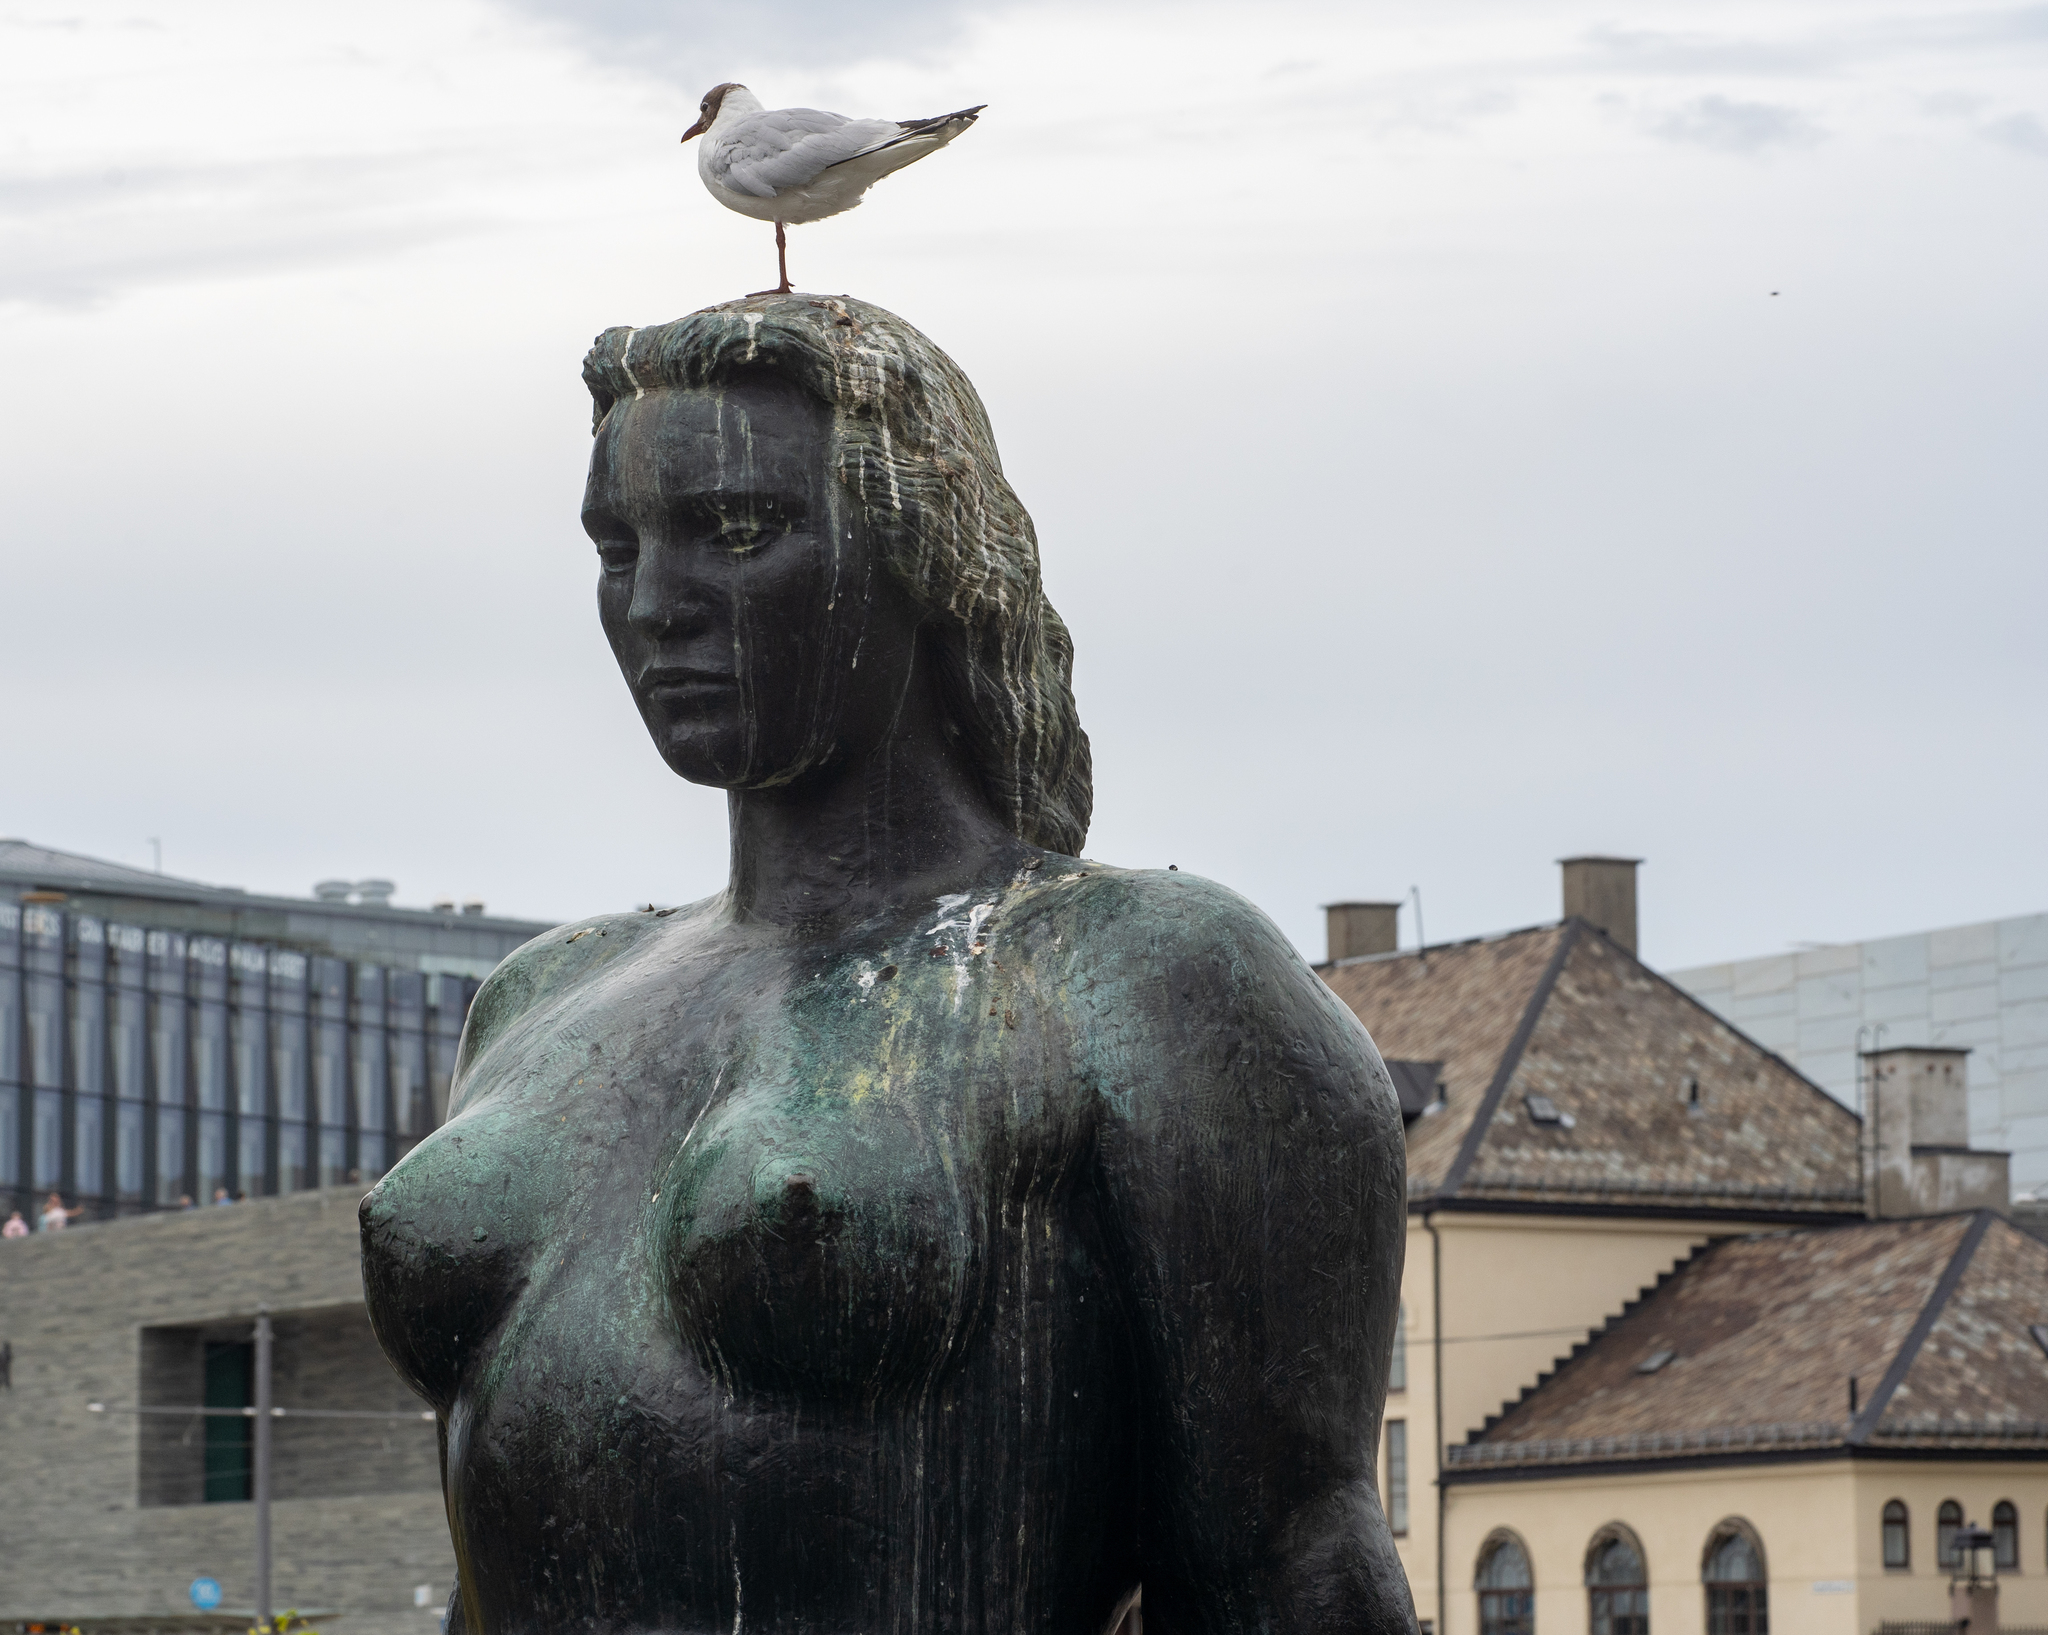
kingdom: Animalia
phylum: Chordata
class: Aves
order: Charadriiformes
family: Laridae
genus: Chroicocephalus
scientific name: Chroicocephalus ridibundus
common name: Black-headed gull
